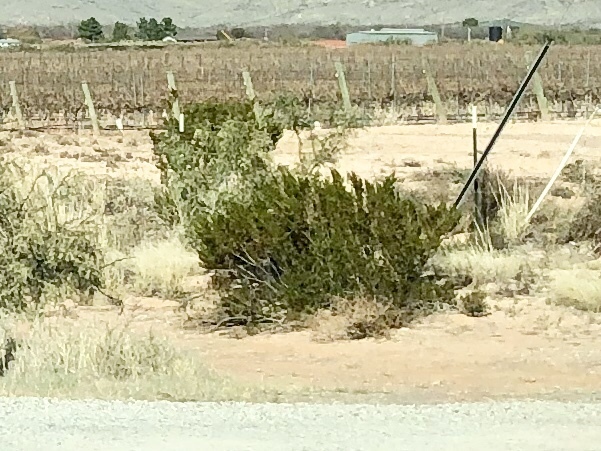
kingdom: Plantae
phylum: Tracheophyta
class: Magnoliopsida
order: Zygophyllales
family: Zygophyllaceae
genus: Larrea
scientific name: Larrea tridentata
